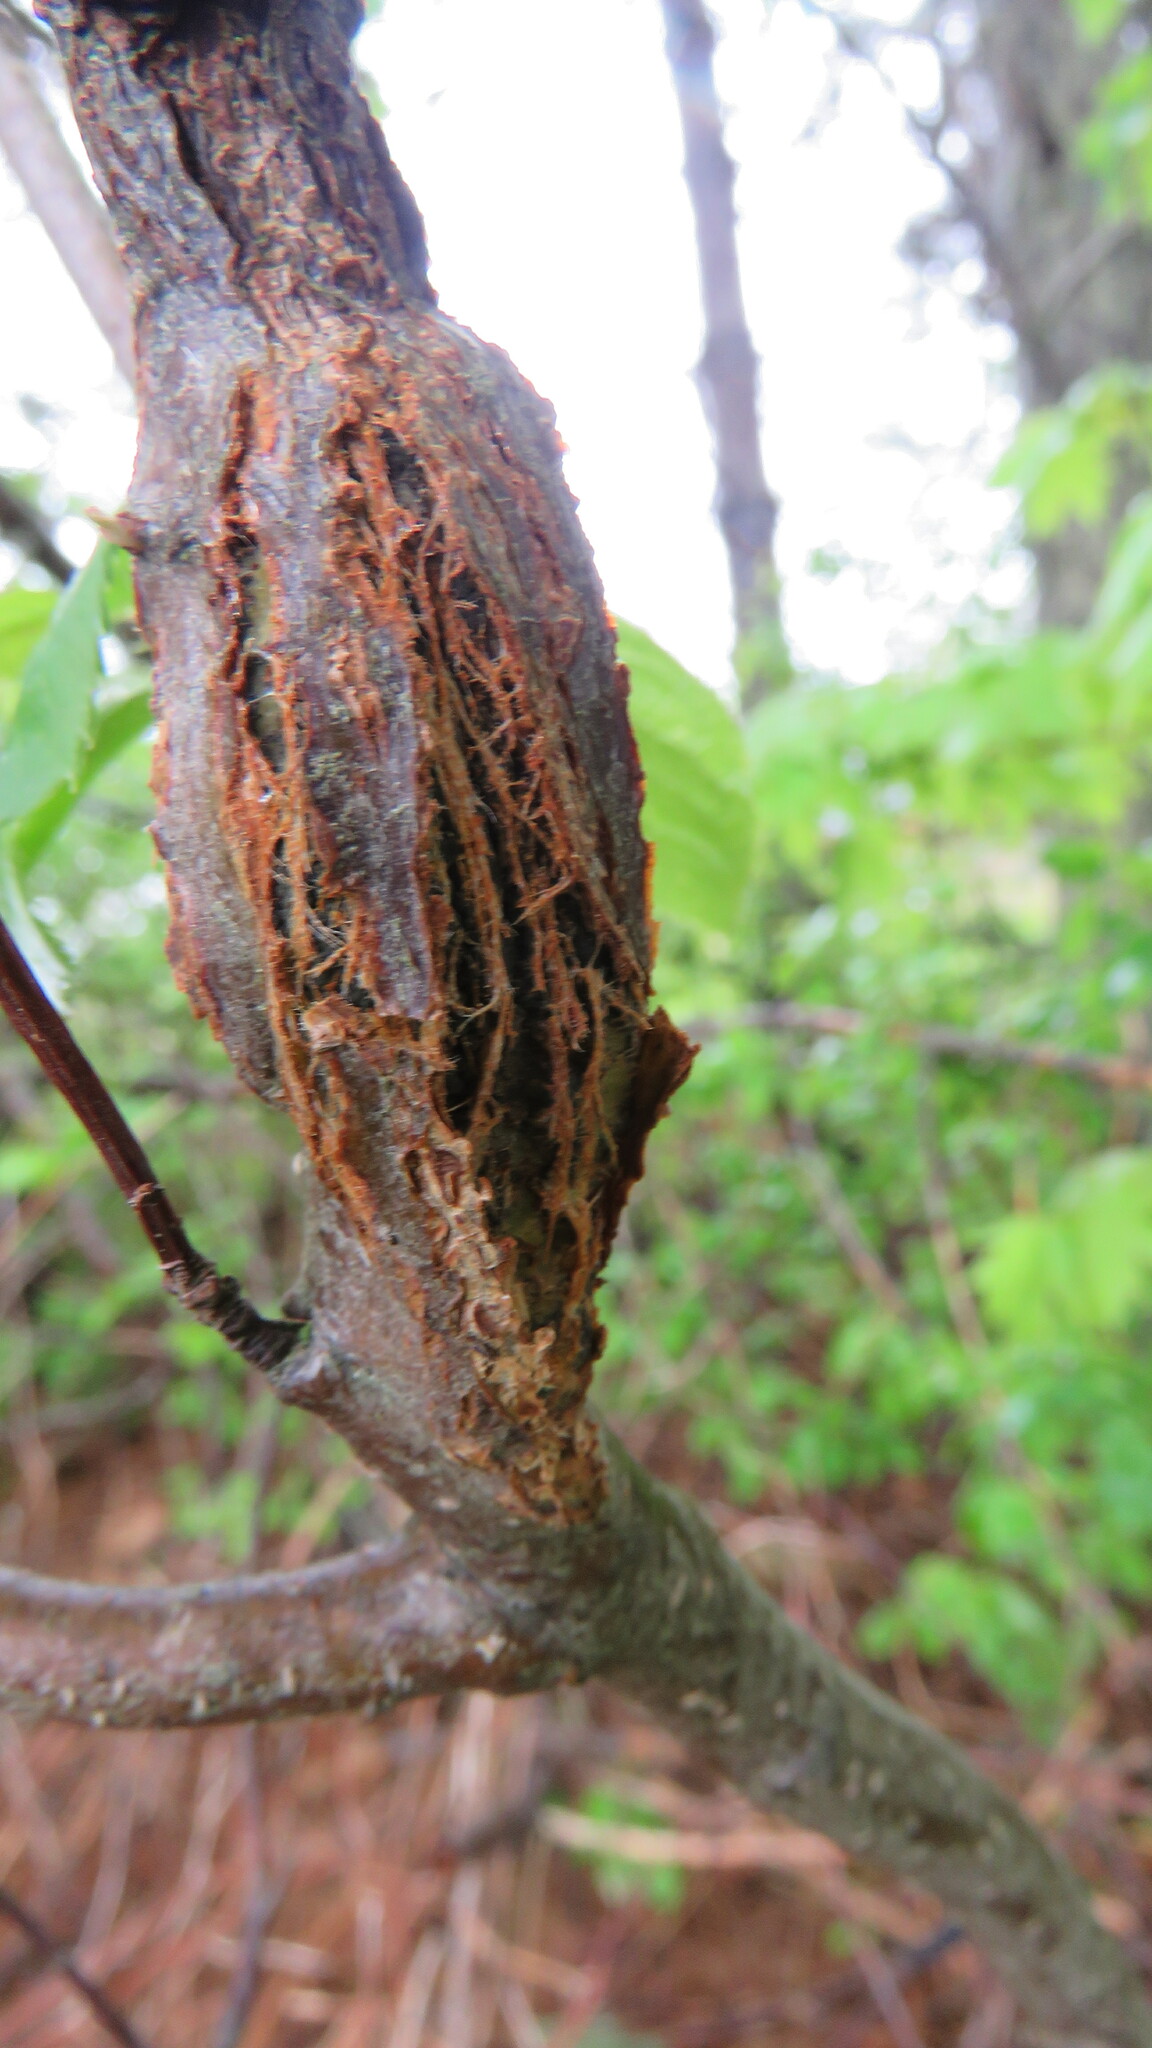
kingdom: Fungi
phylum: Ascomycota
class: Dothideomycetes
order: Venturiales
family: Venturiaceae
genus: Apiosporina
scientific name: Apiosporina morbosa
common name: Black knot
